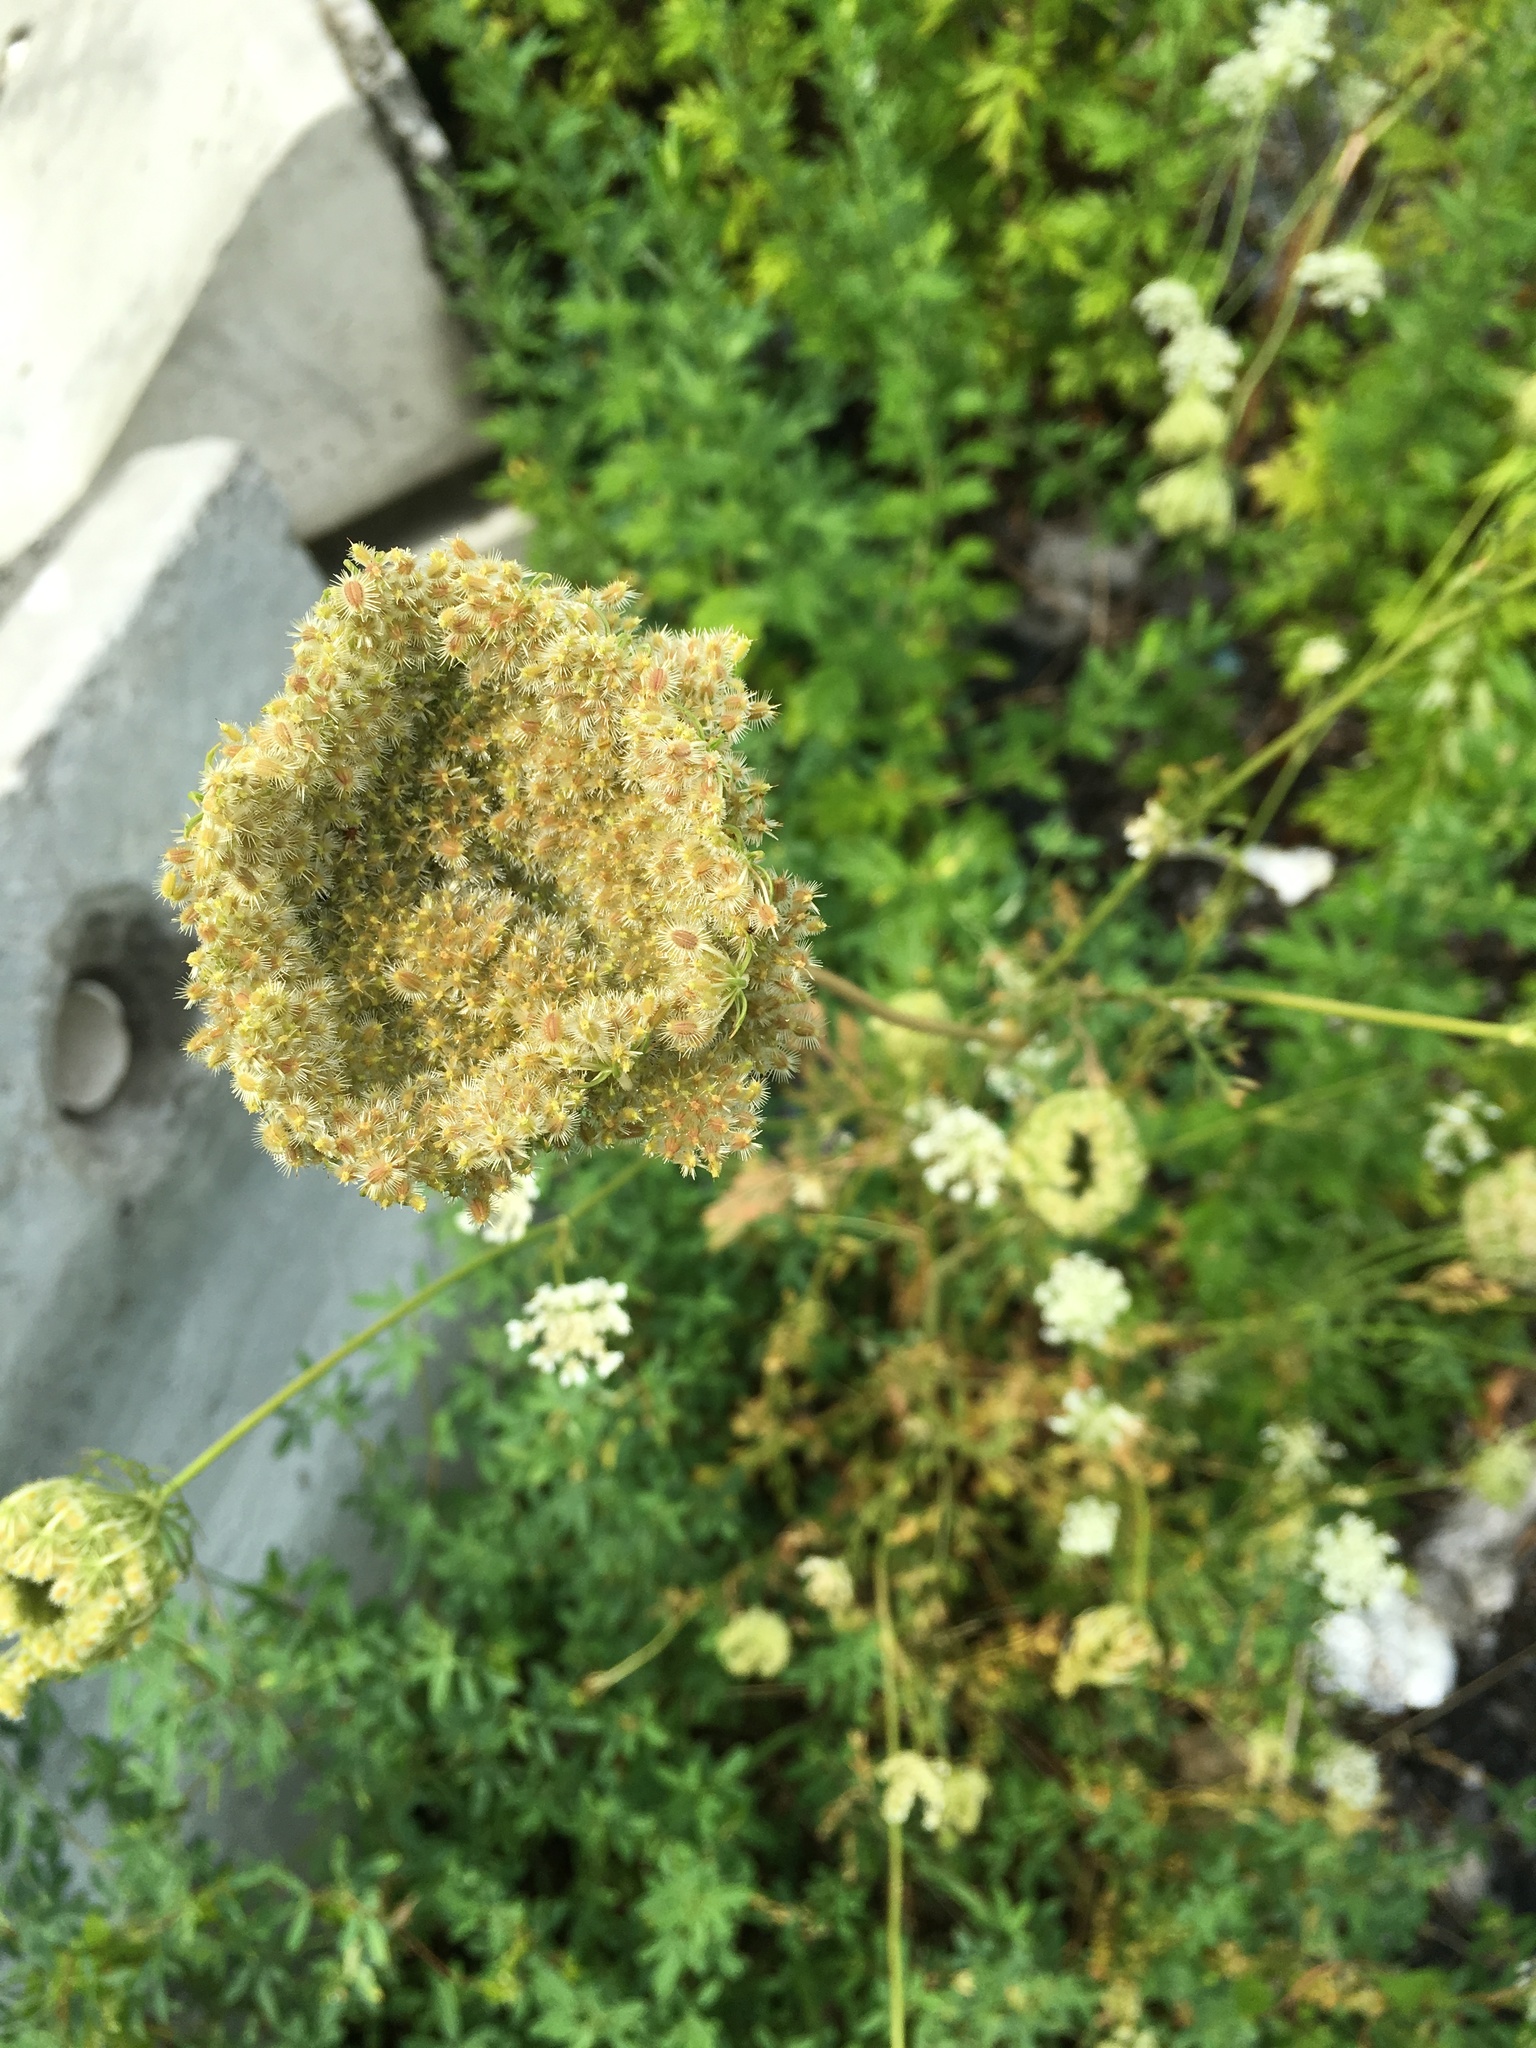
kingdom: Plantae
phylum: Tracheophyta
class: Magnoliopsida
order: Apiales
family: Apiaceae
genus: Daucus
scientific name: Daucus carota
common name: Wild carrot
